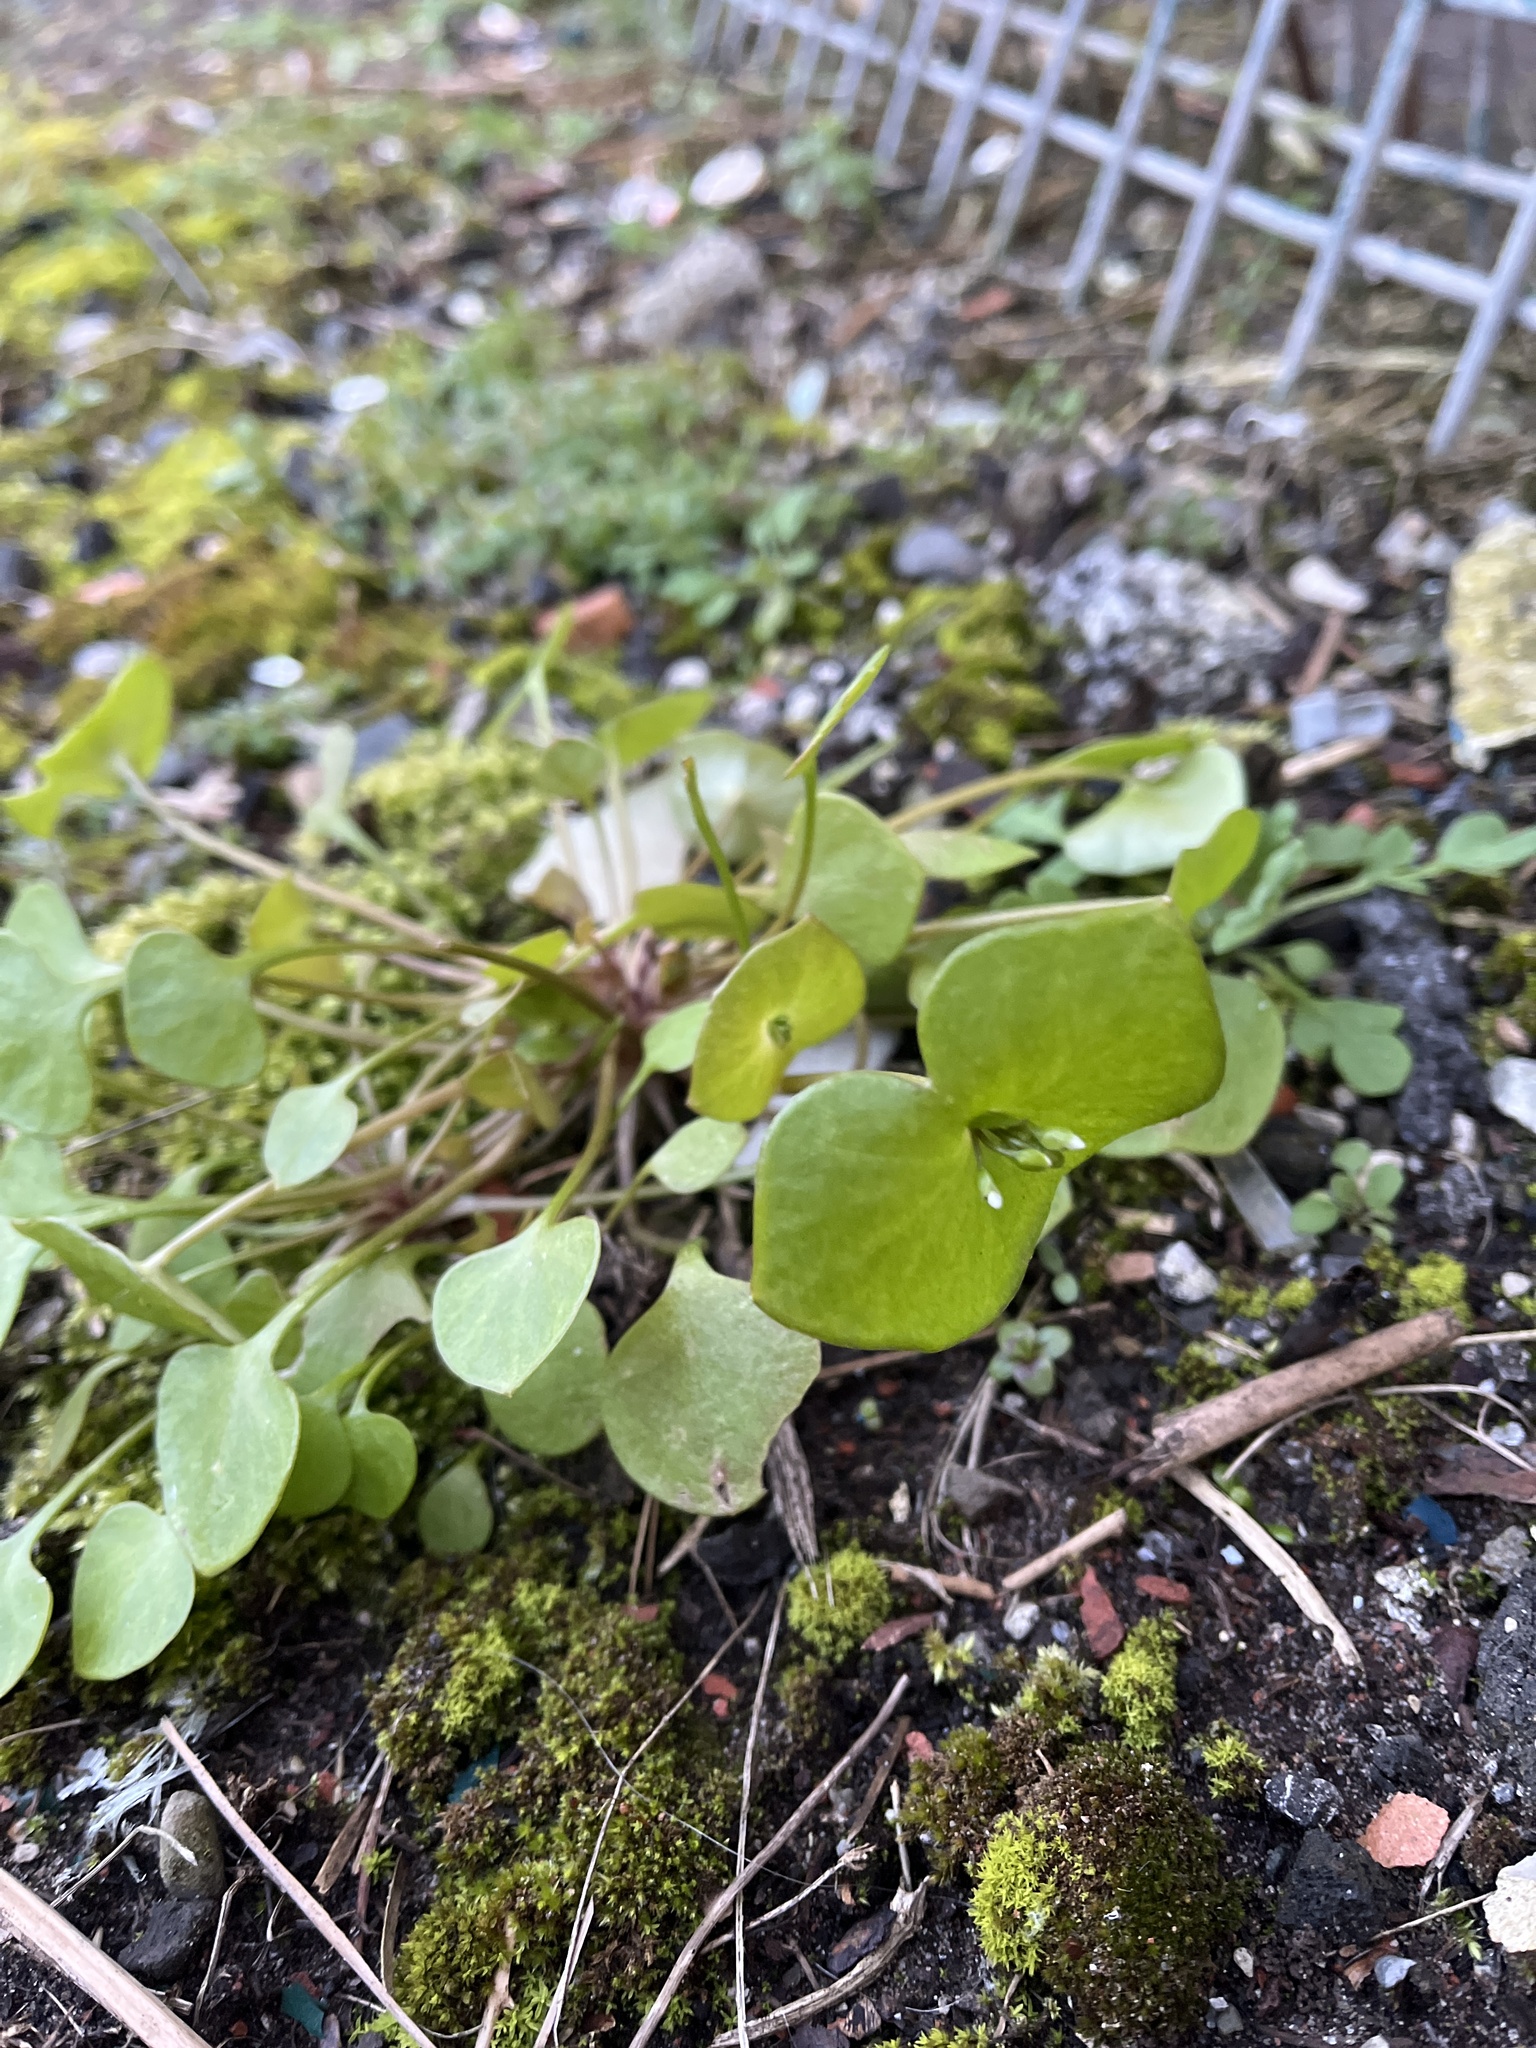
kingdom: Plantae
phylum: Tracheophyta
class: Magnoliopsida
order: Caryophyllales
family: Montiaceae
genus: Claytonia
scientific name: Claytonia perfoliata
